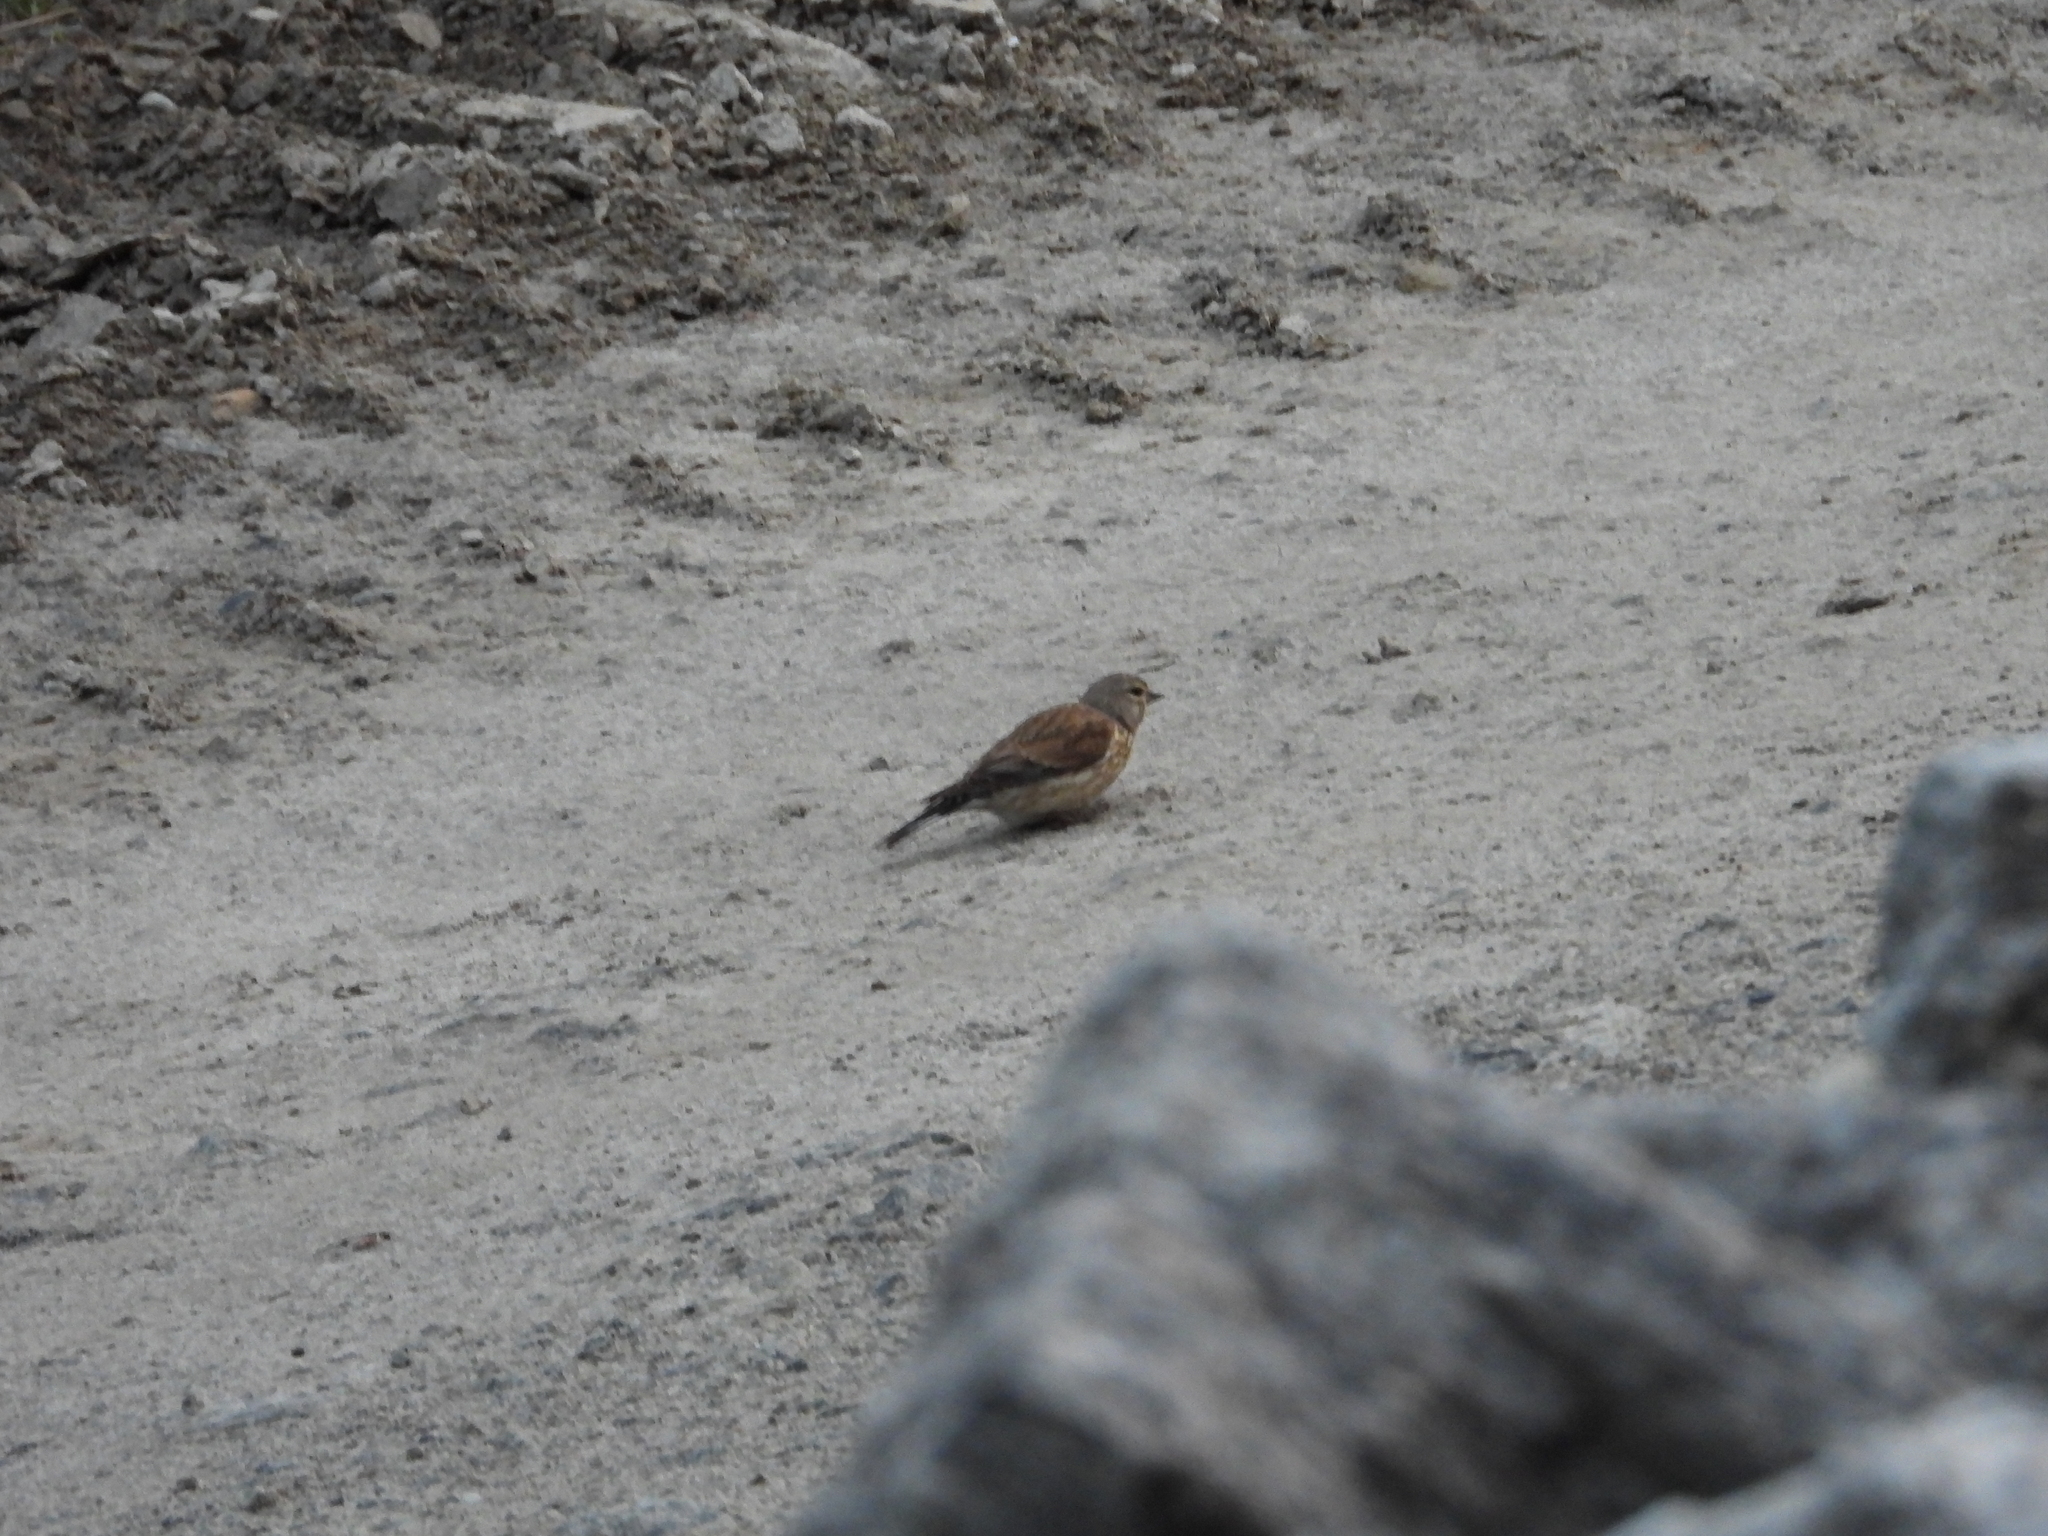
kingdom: Animalia
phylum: Chordata
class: Aves
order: Passeriformes
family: Fringillidae
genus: Linaria
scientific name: Linaria cannabina
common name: Common linnet
